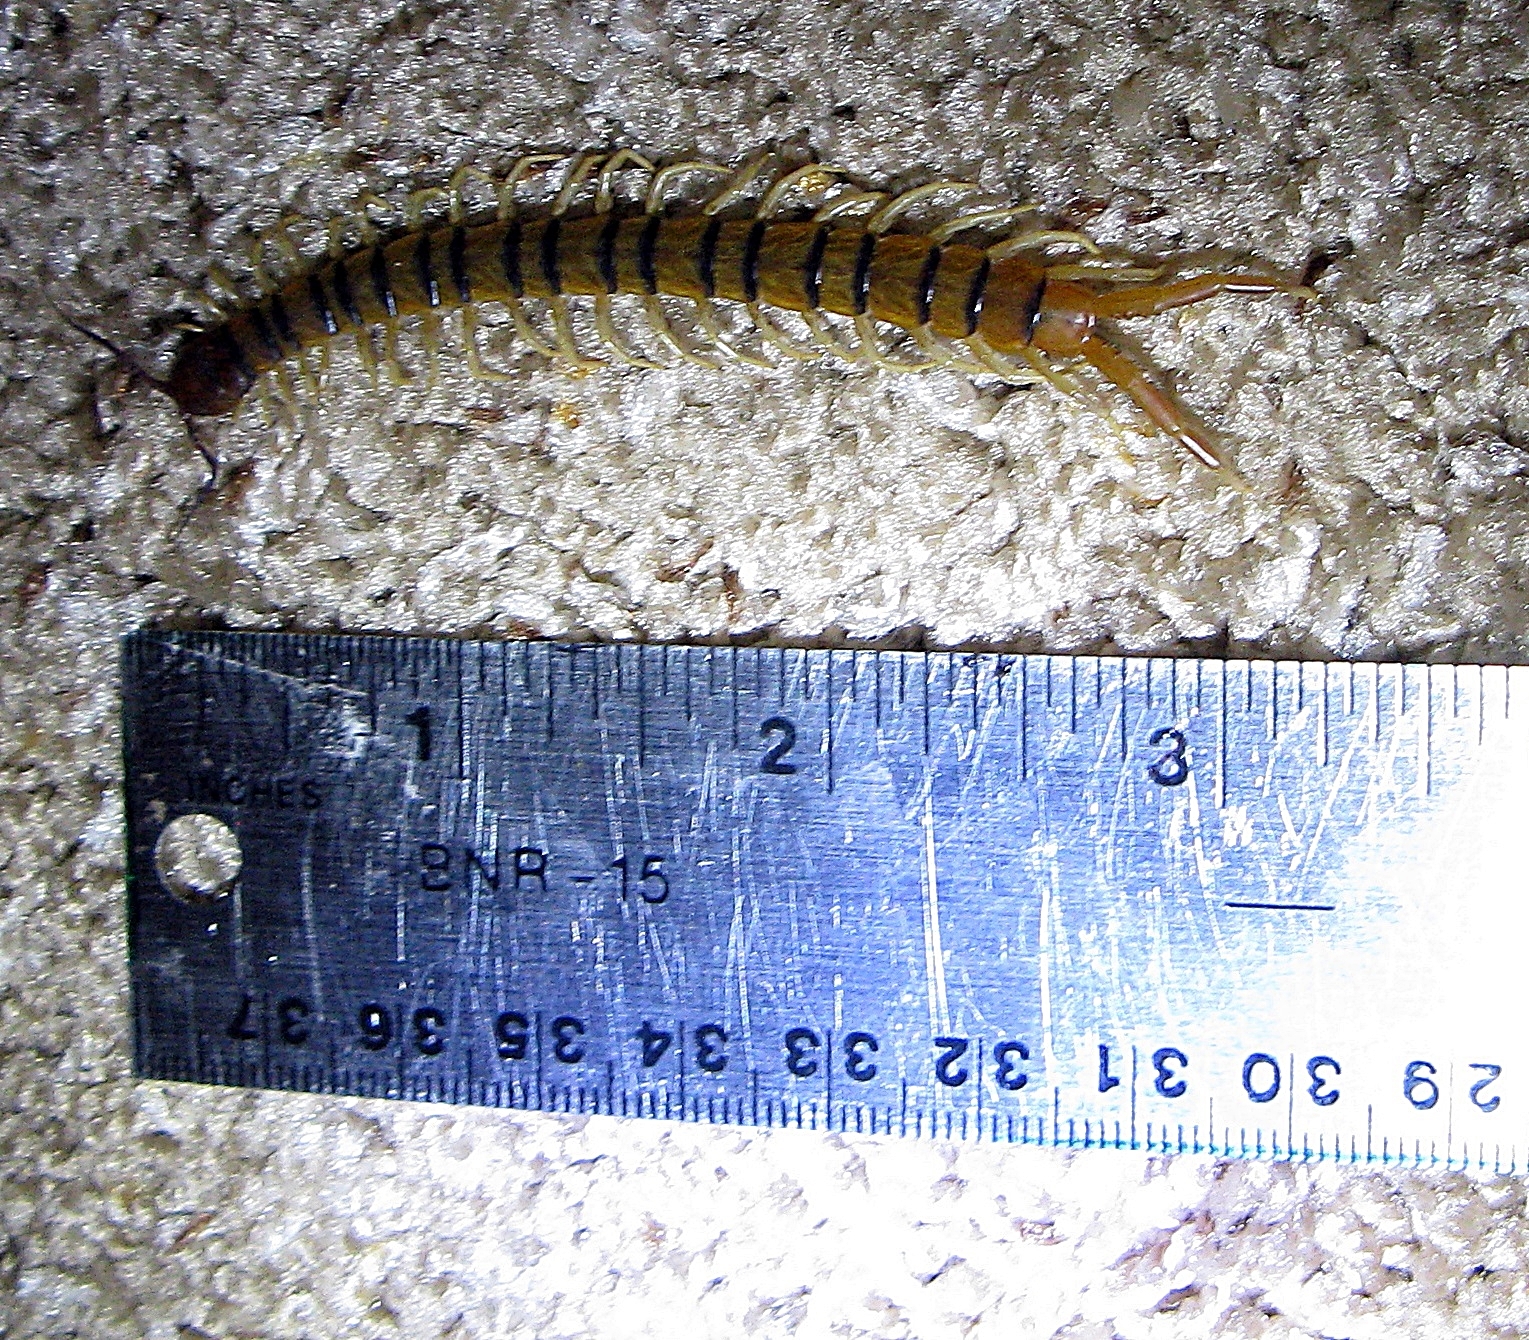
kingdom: Animalia
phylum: Arthropoda
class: Chilopoda
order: Scolopendromorpha
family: Scolopendridae
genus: Scolopendra
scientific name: Scolopendra polymorpha
